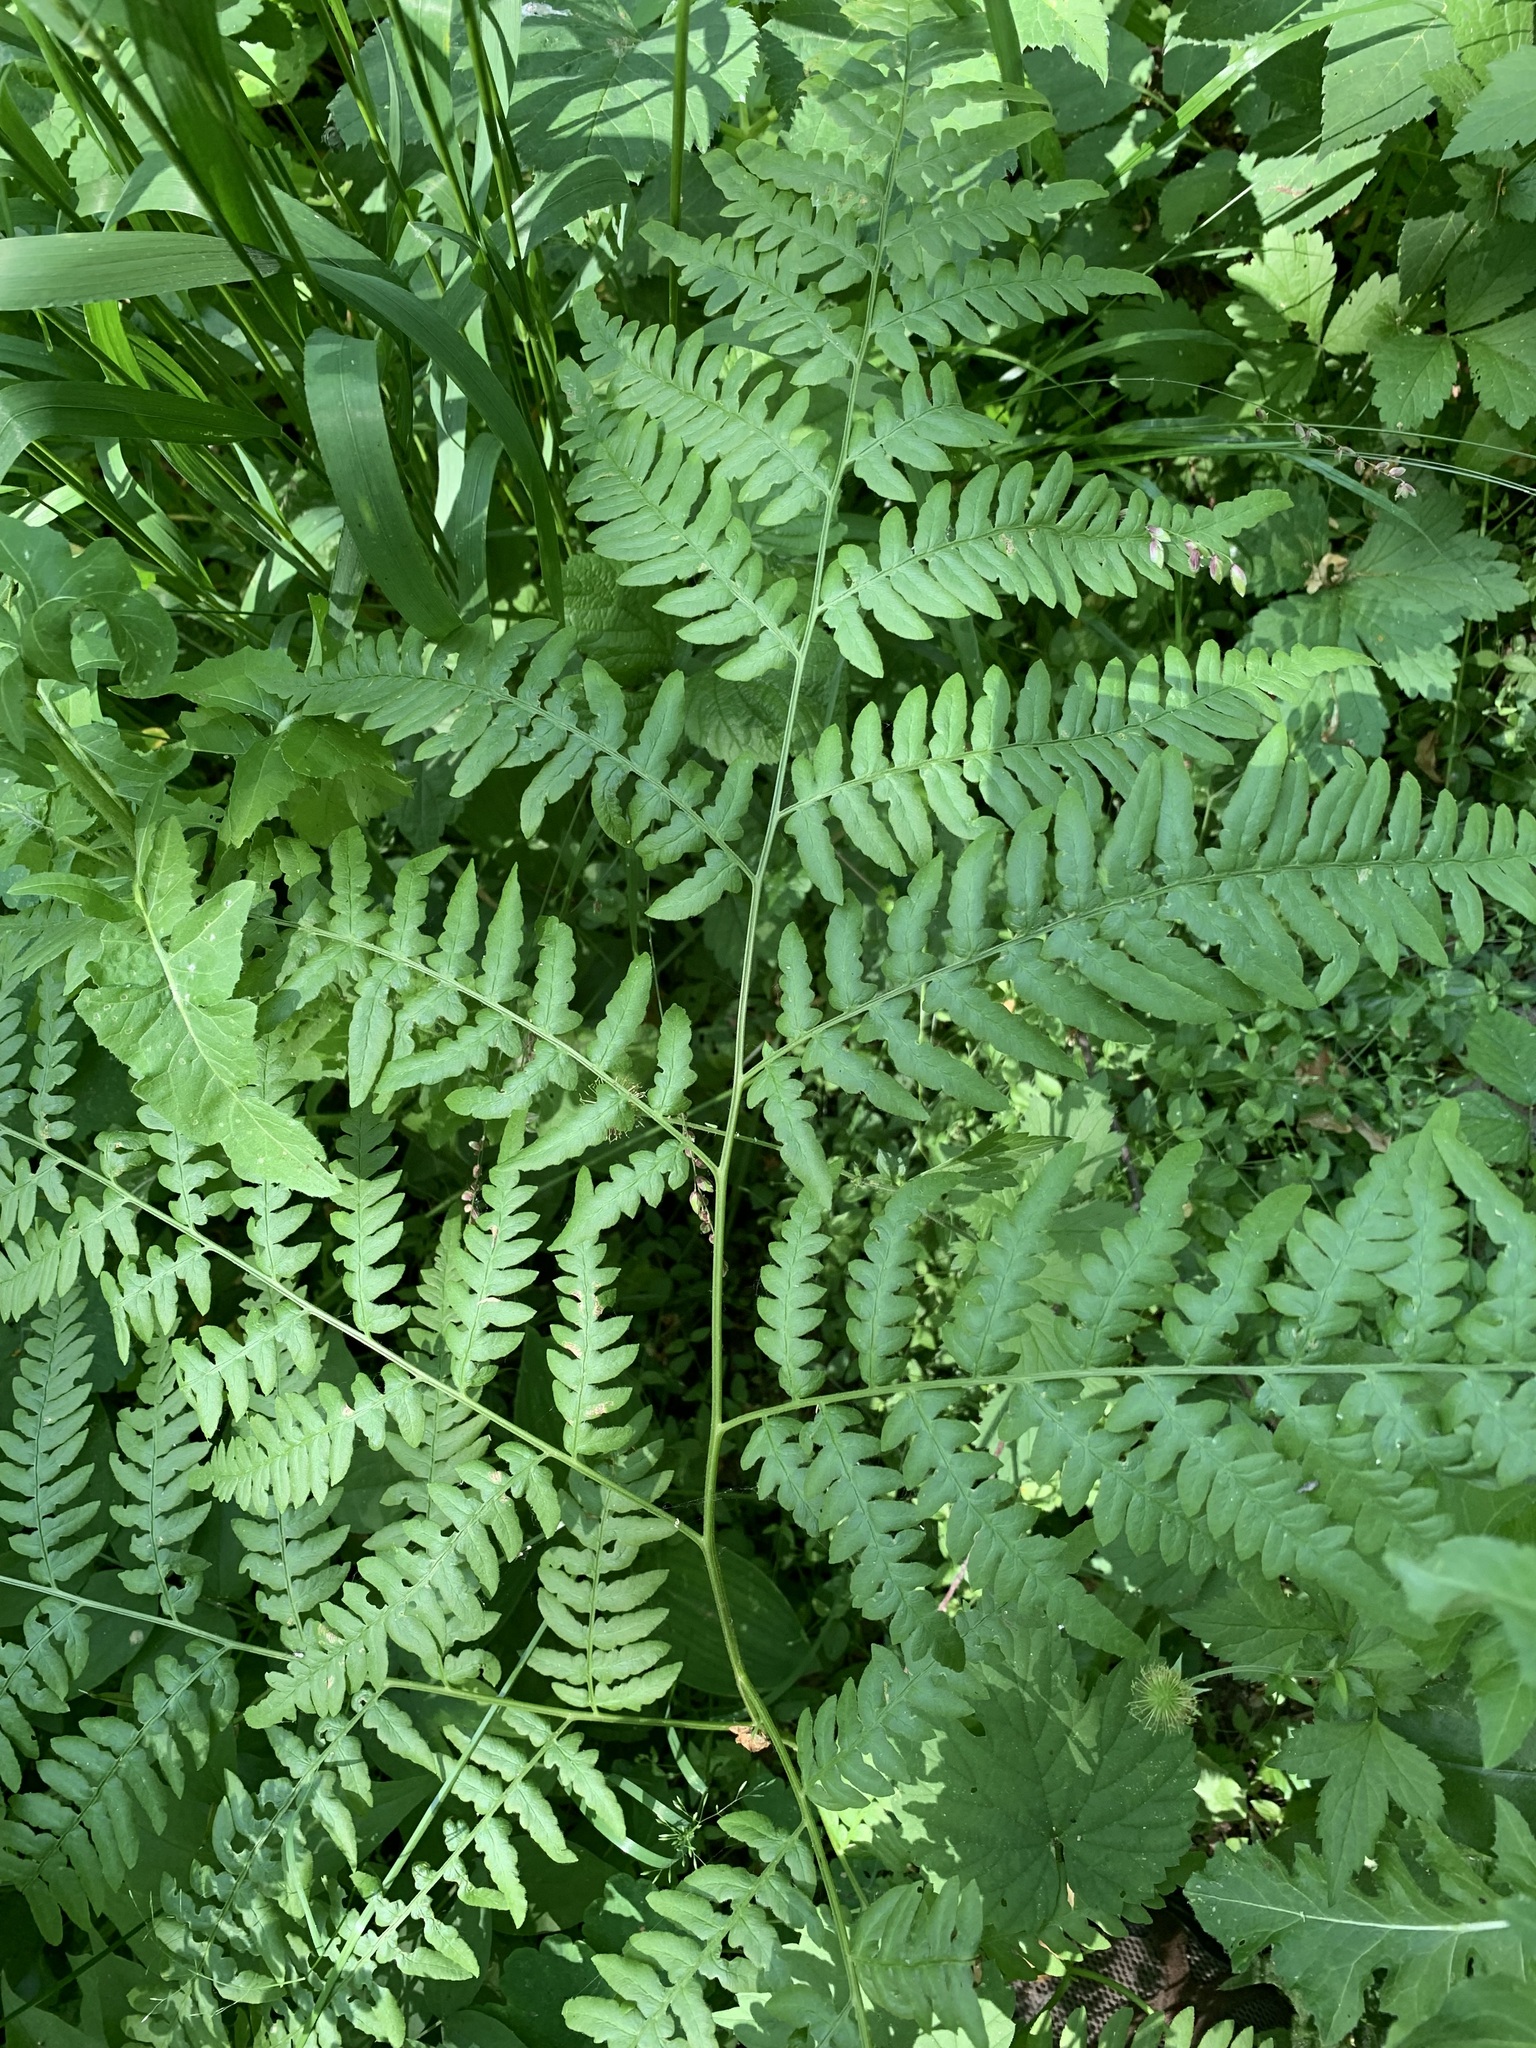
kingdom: Plantae
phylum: Tracheophyta
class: Polypodiopsida
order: Polypodiales
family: Dennstaedtiaceae
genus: Pteridium
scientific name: Pteridium aquilinum
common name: Bracken
